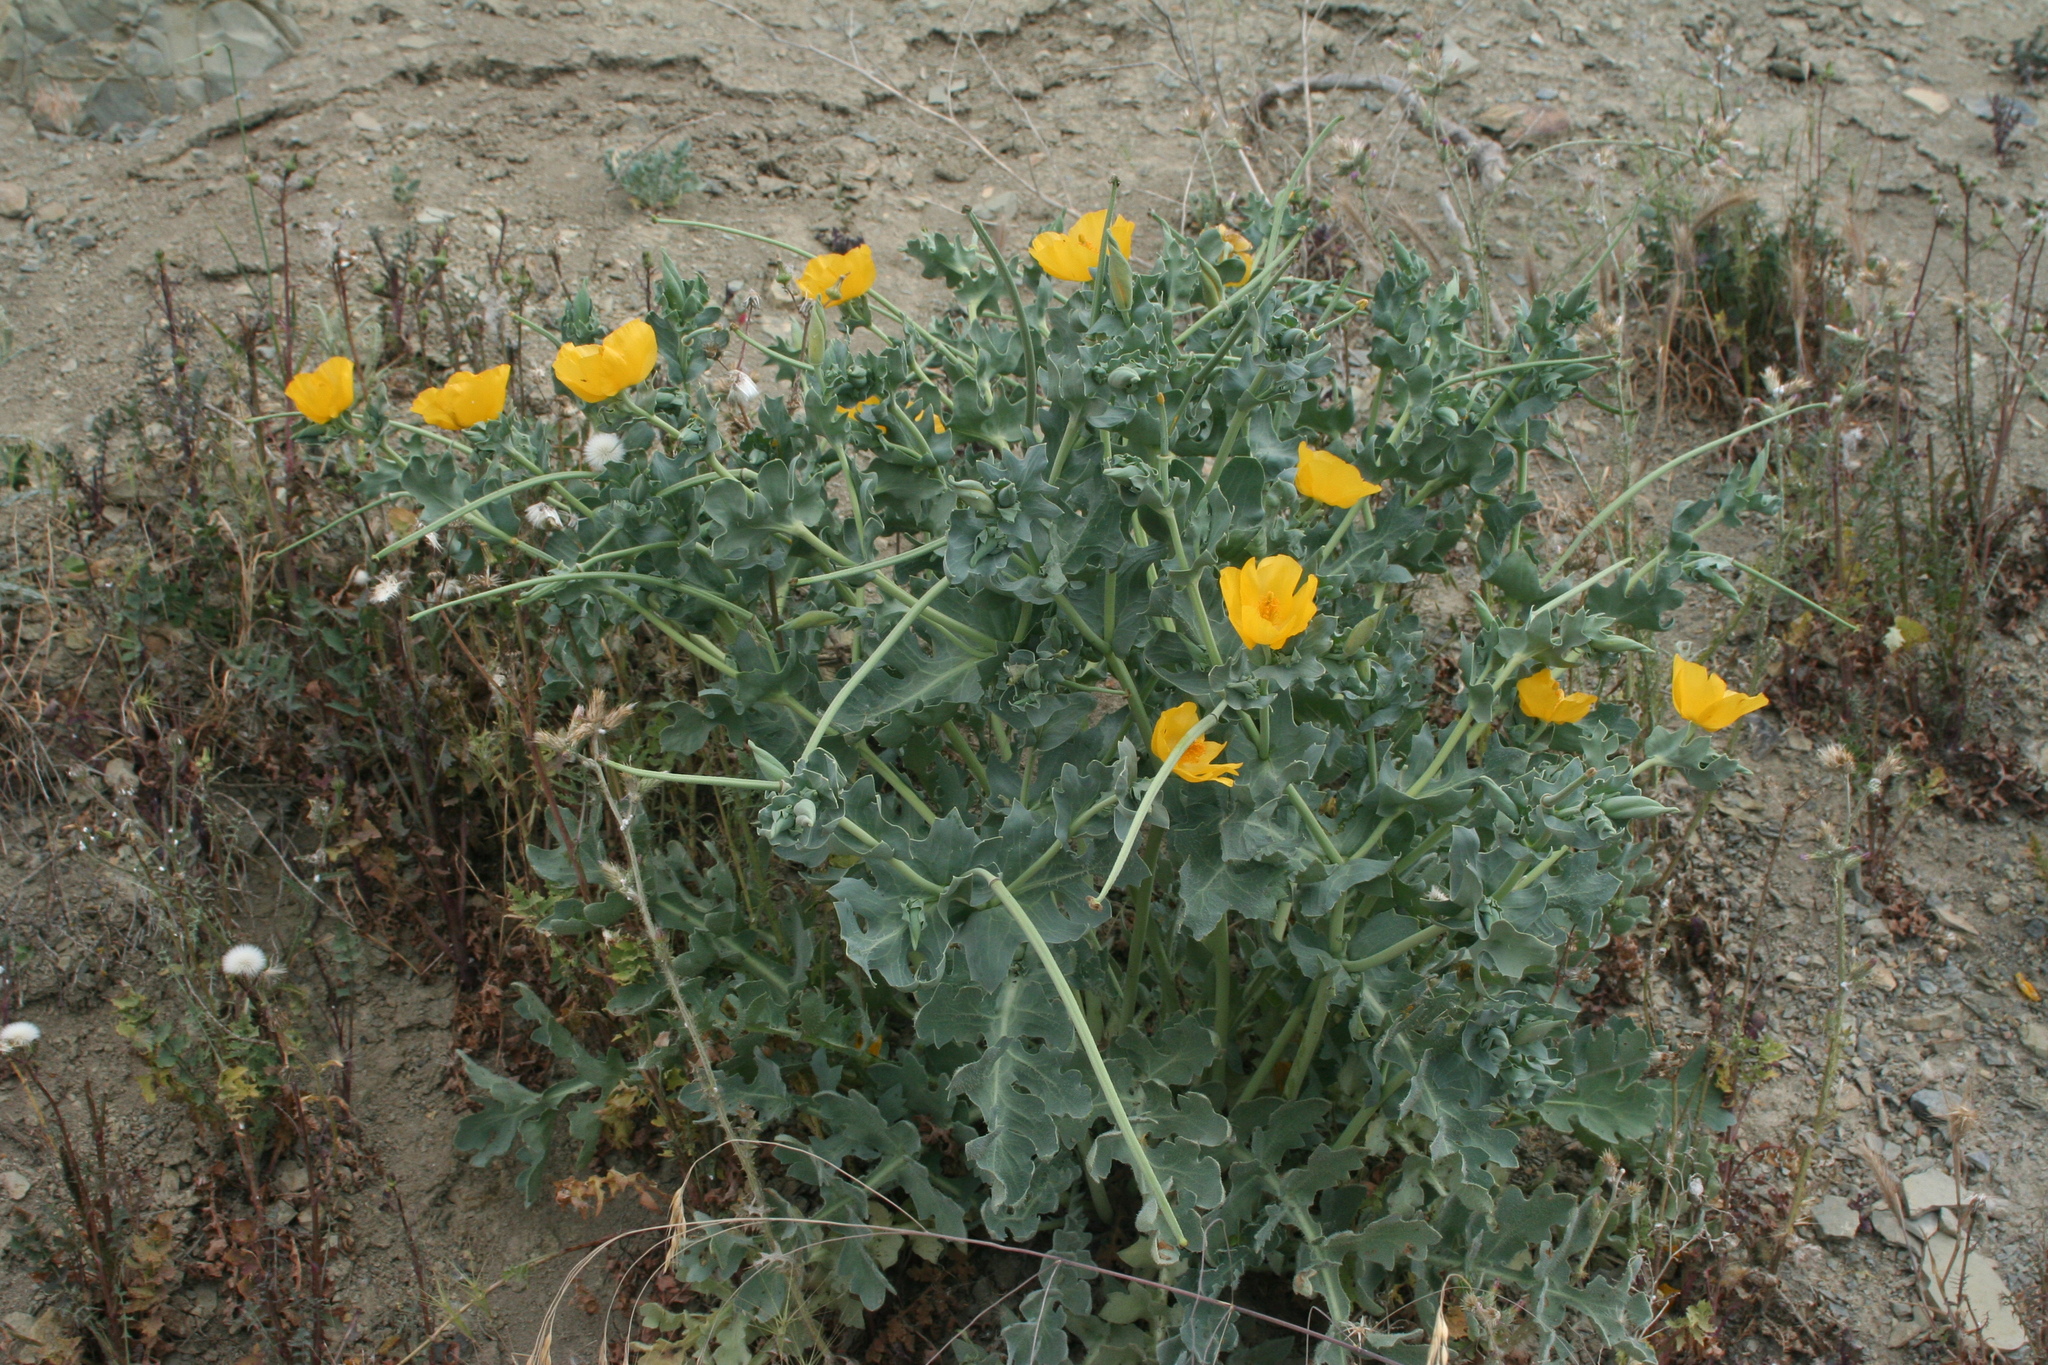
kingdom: Plantae
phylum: Tracheophyta
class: Magnoliopsida
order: Ranunculales
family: Papaveraceae
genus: Glaucium
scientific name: Glaucium flavum
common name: Yellow horned-poppy
